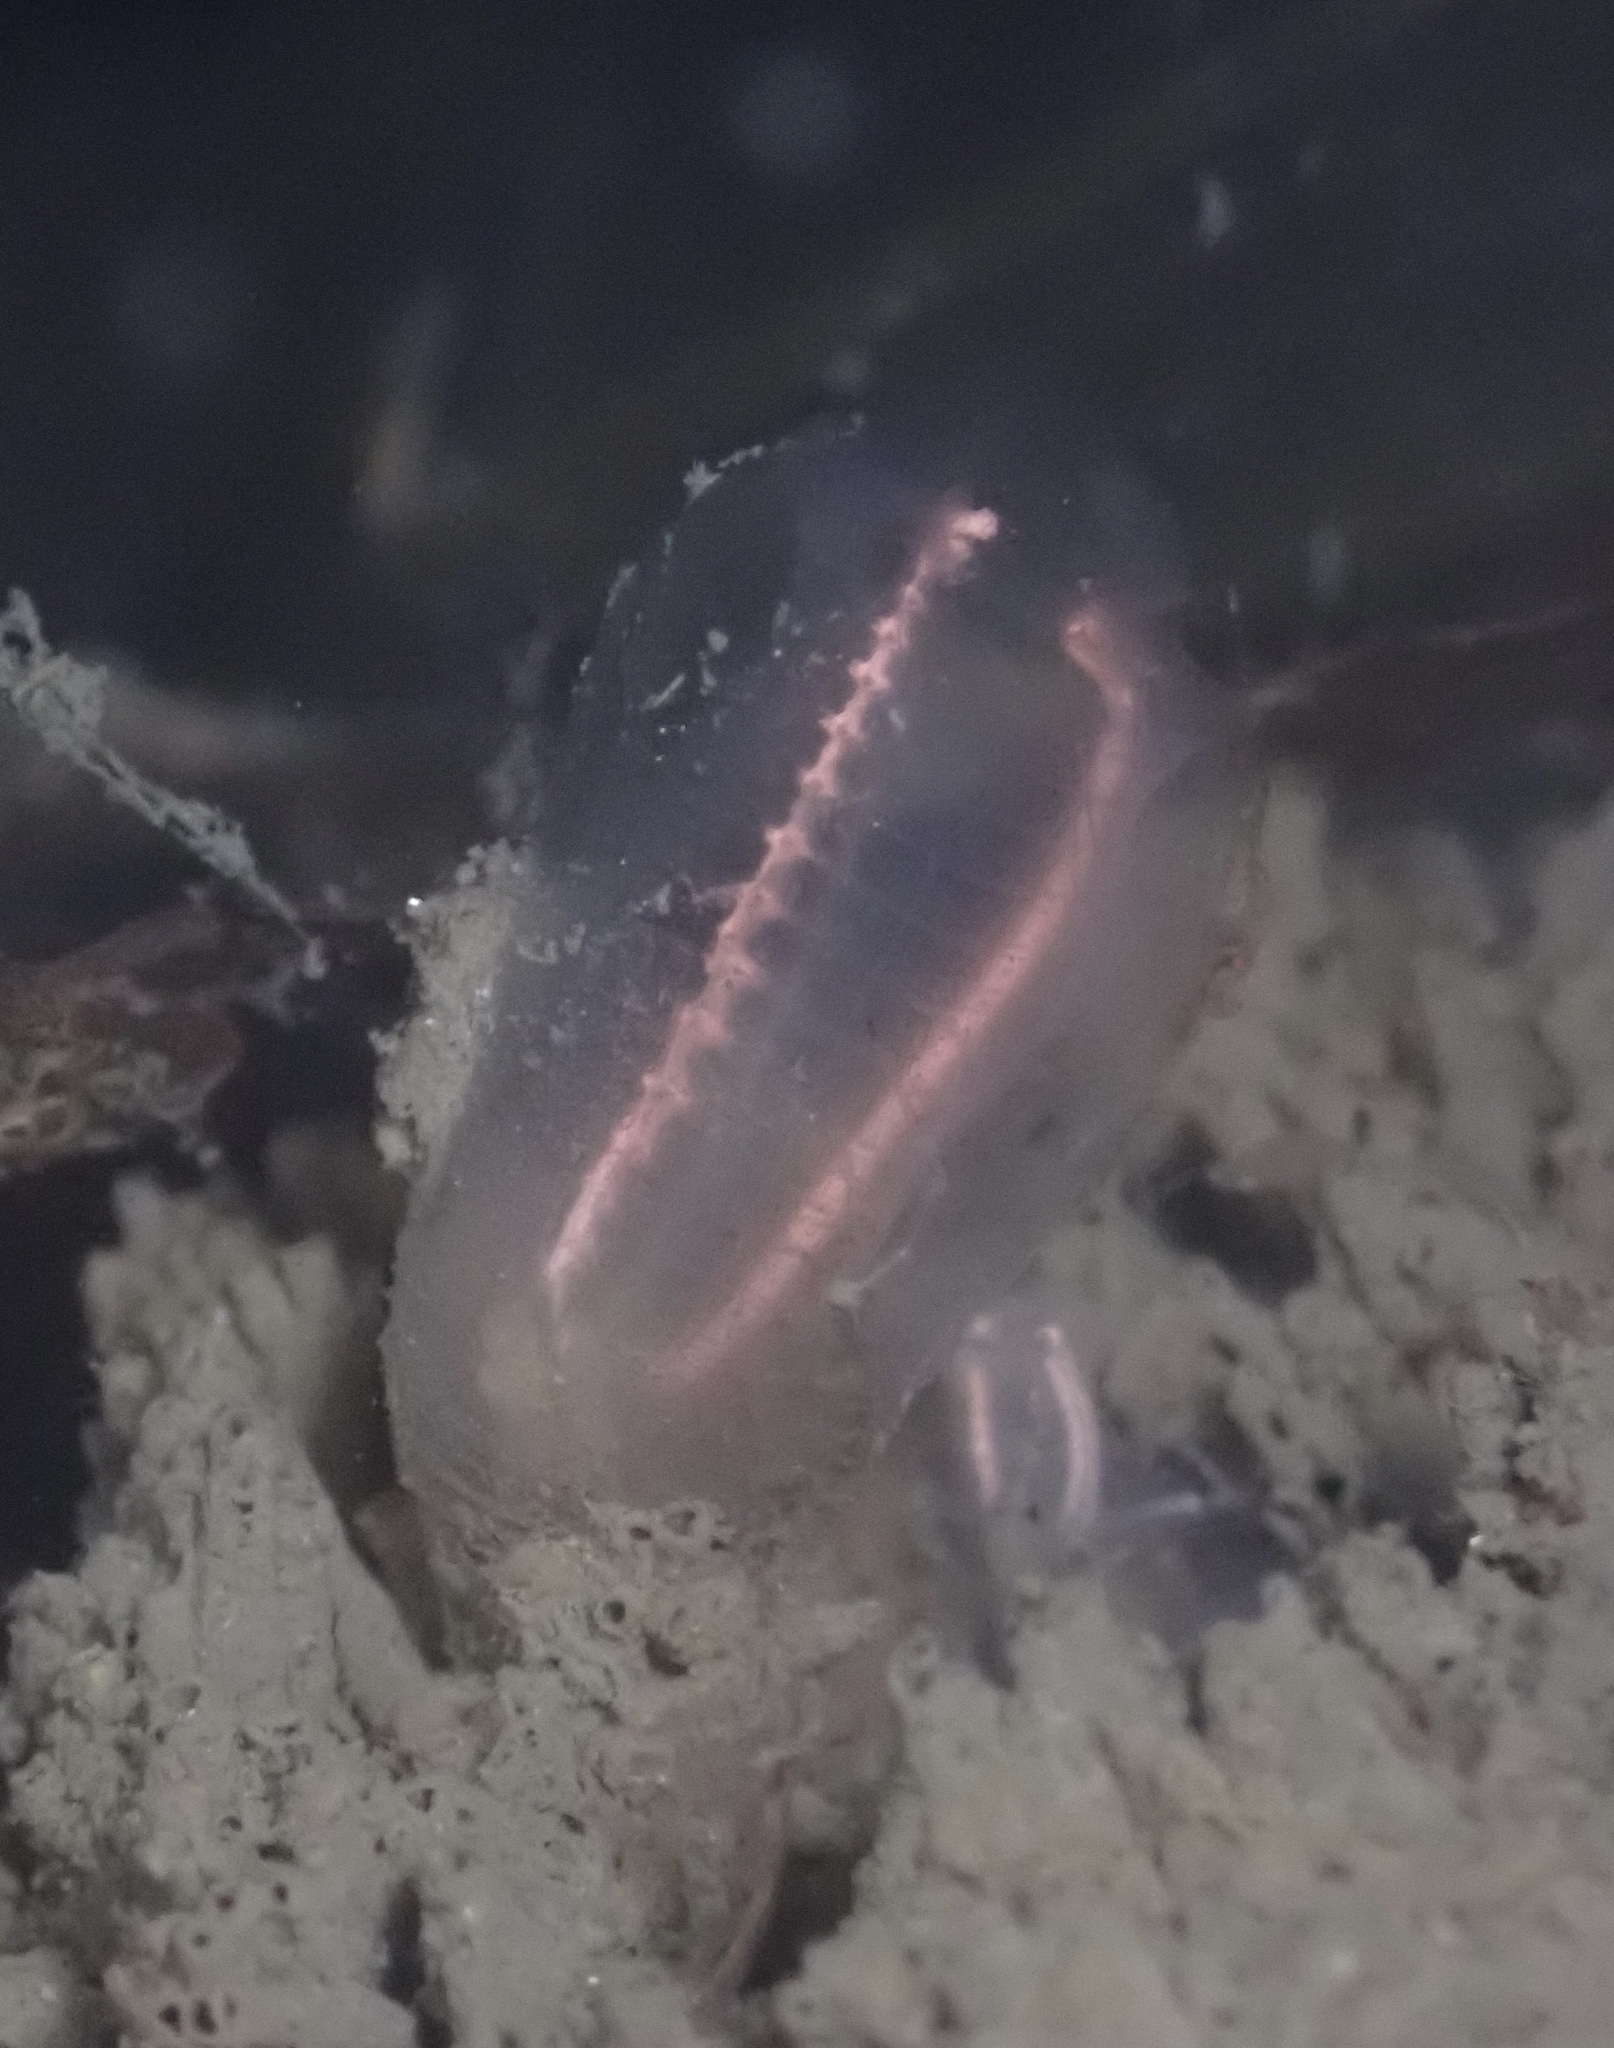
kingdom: Animalia
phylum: Chordata
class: Ascidiacea
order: Aplousobranchia
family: Clavelinidae
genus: Clavelina
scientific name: Clavelina huntsmani
